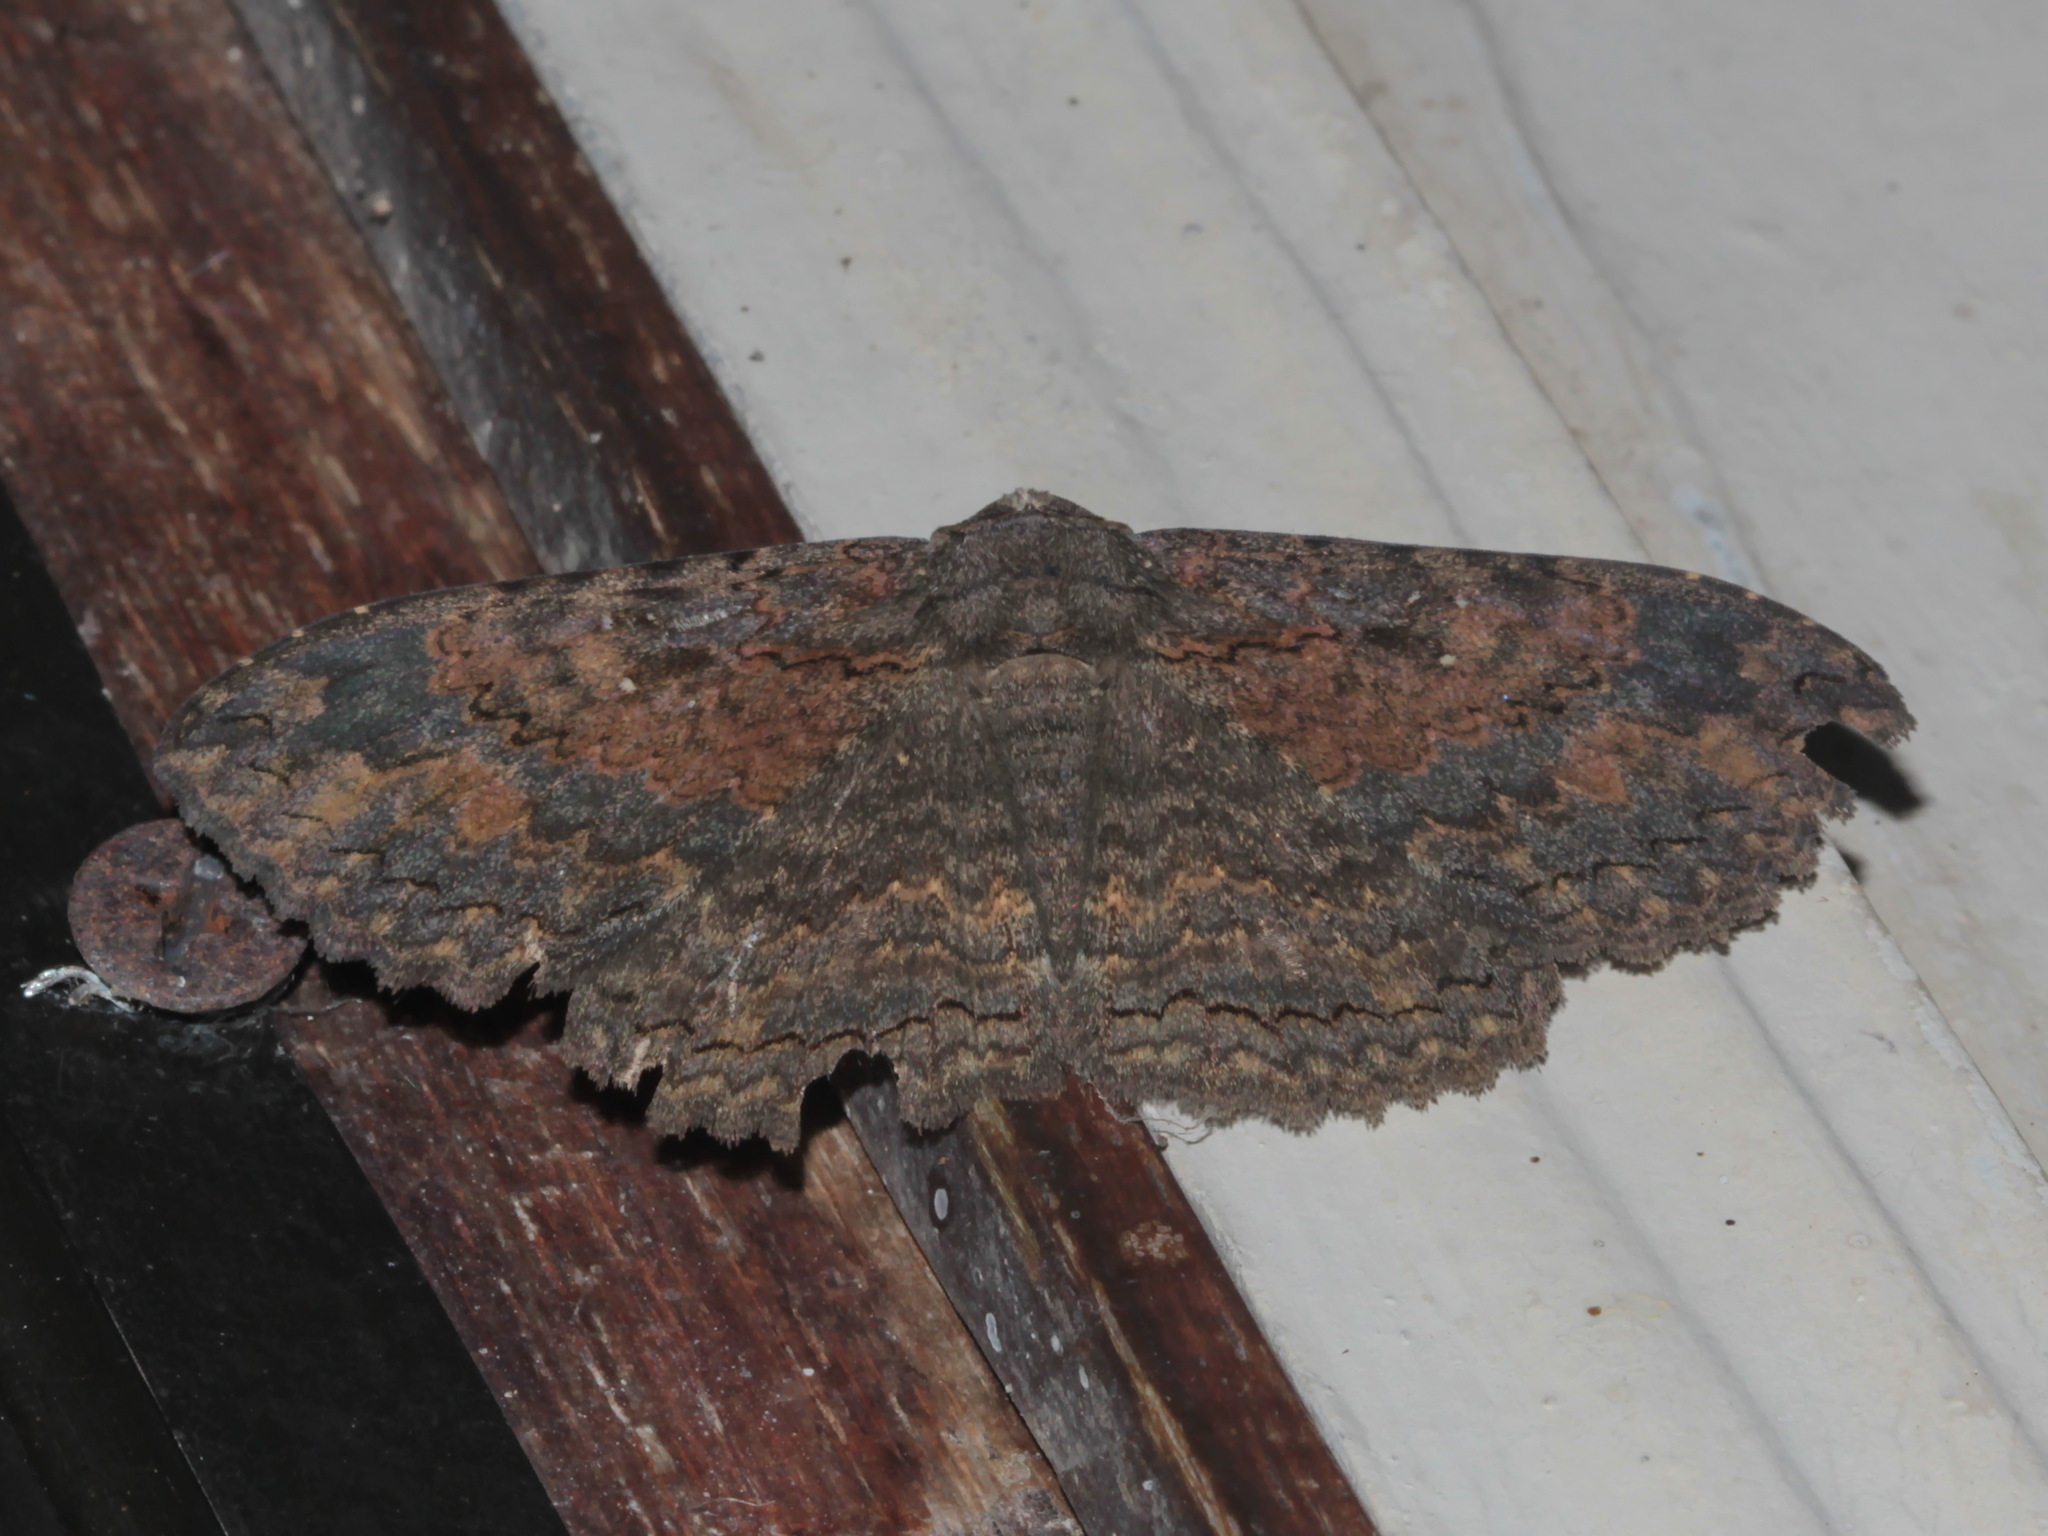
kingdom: Animalia
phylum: Arthropoda
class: Insecta
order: Lepidoptera
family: Erebidae
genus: Anisoneura
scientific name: Anisoneura salebrosa
